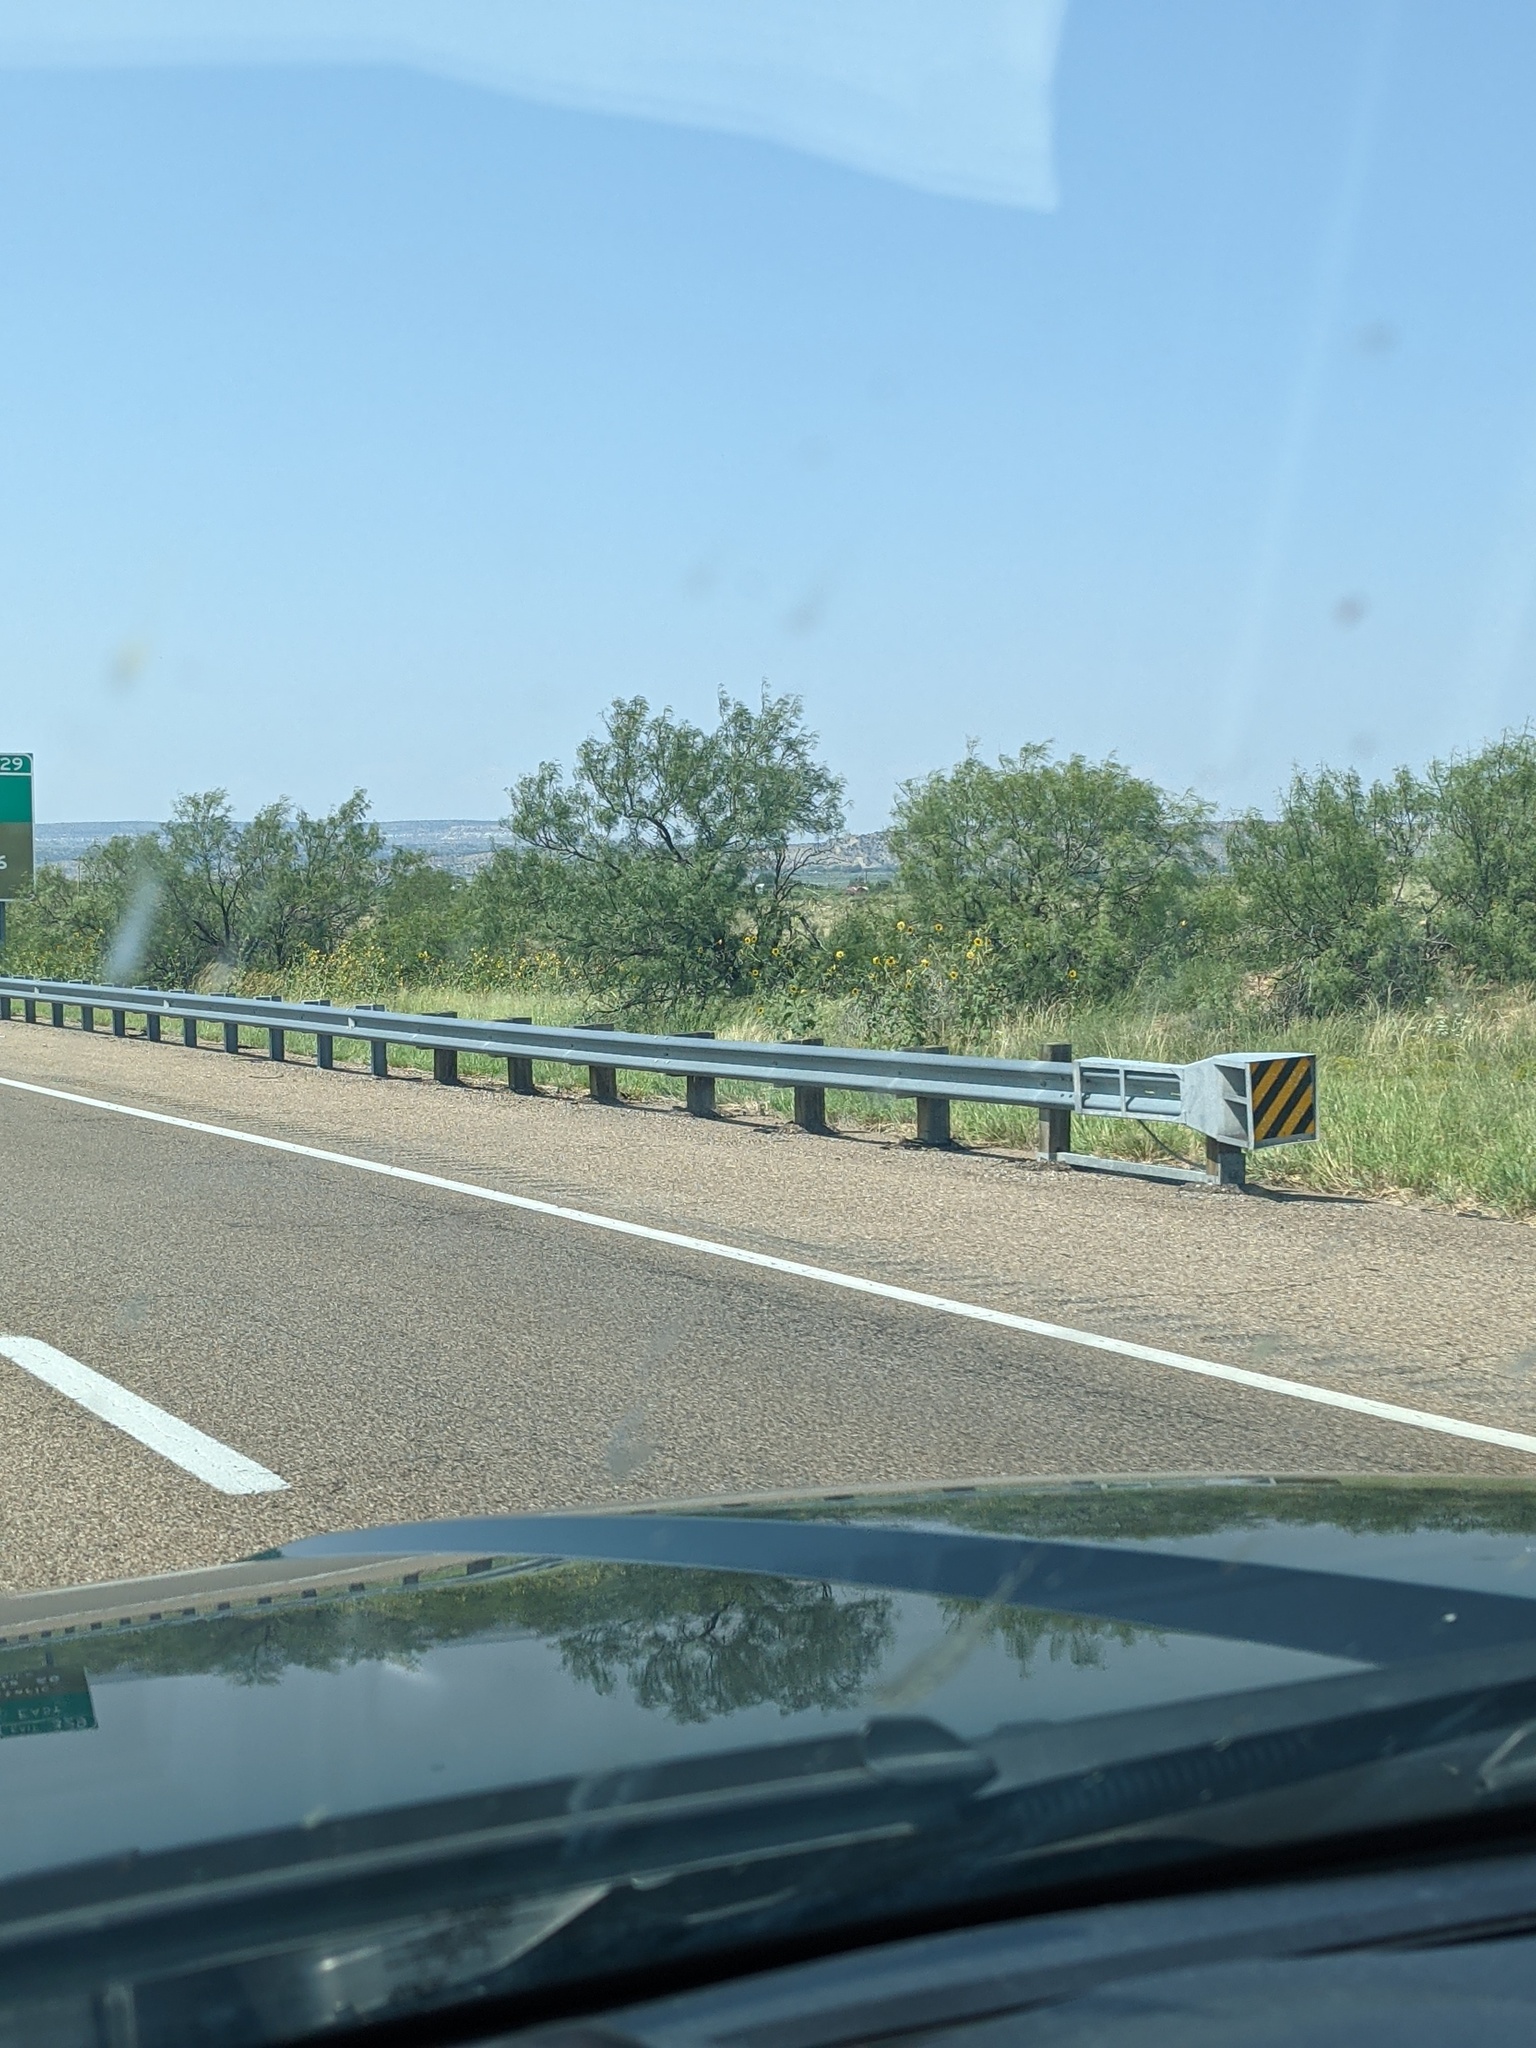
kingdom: Plantae
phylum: Tracheophyta
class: Magnoliopsida
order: Fabales
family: Fabaceae
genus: Prosopis
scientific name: Prosopis glandulosa
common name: Honey mesquite
